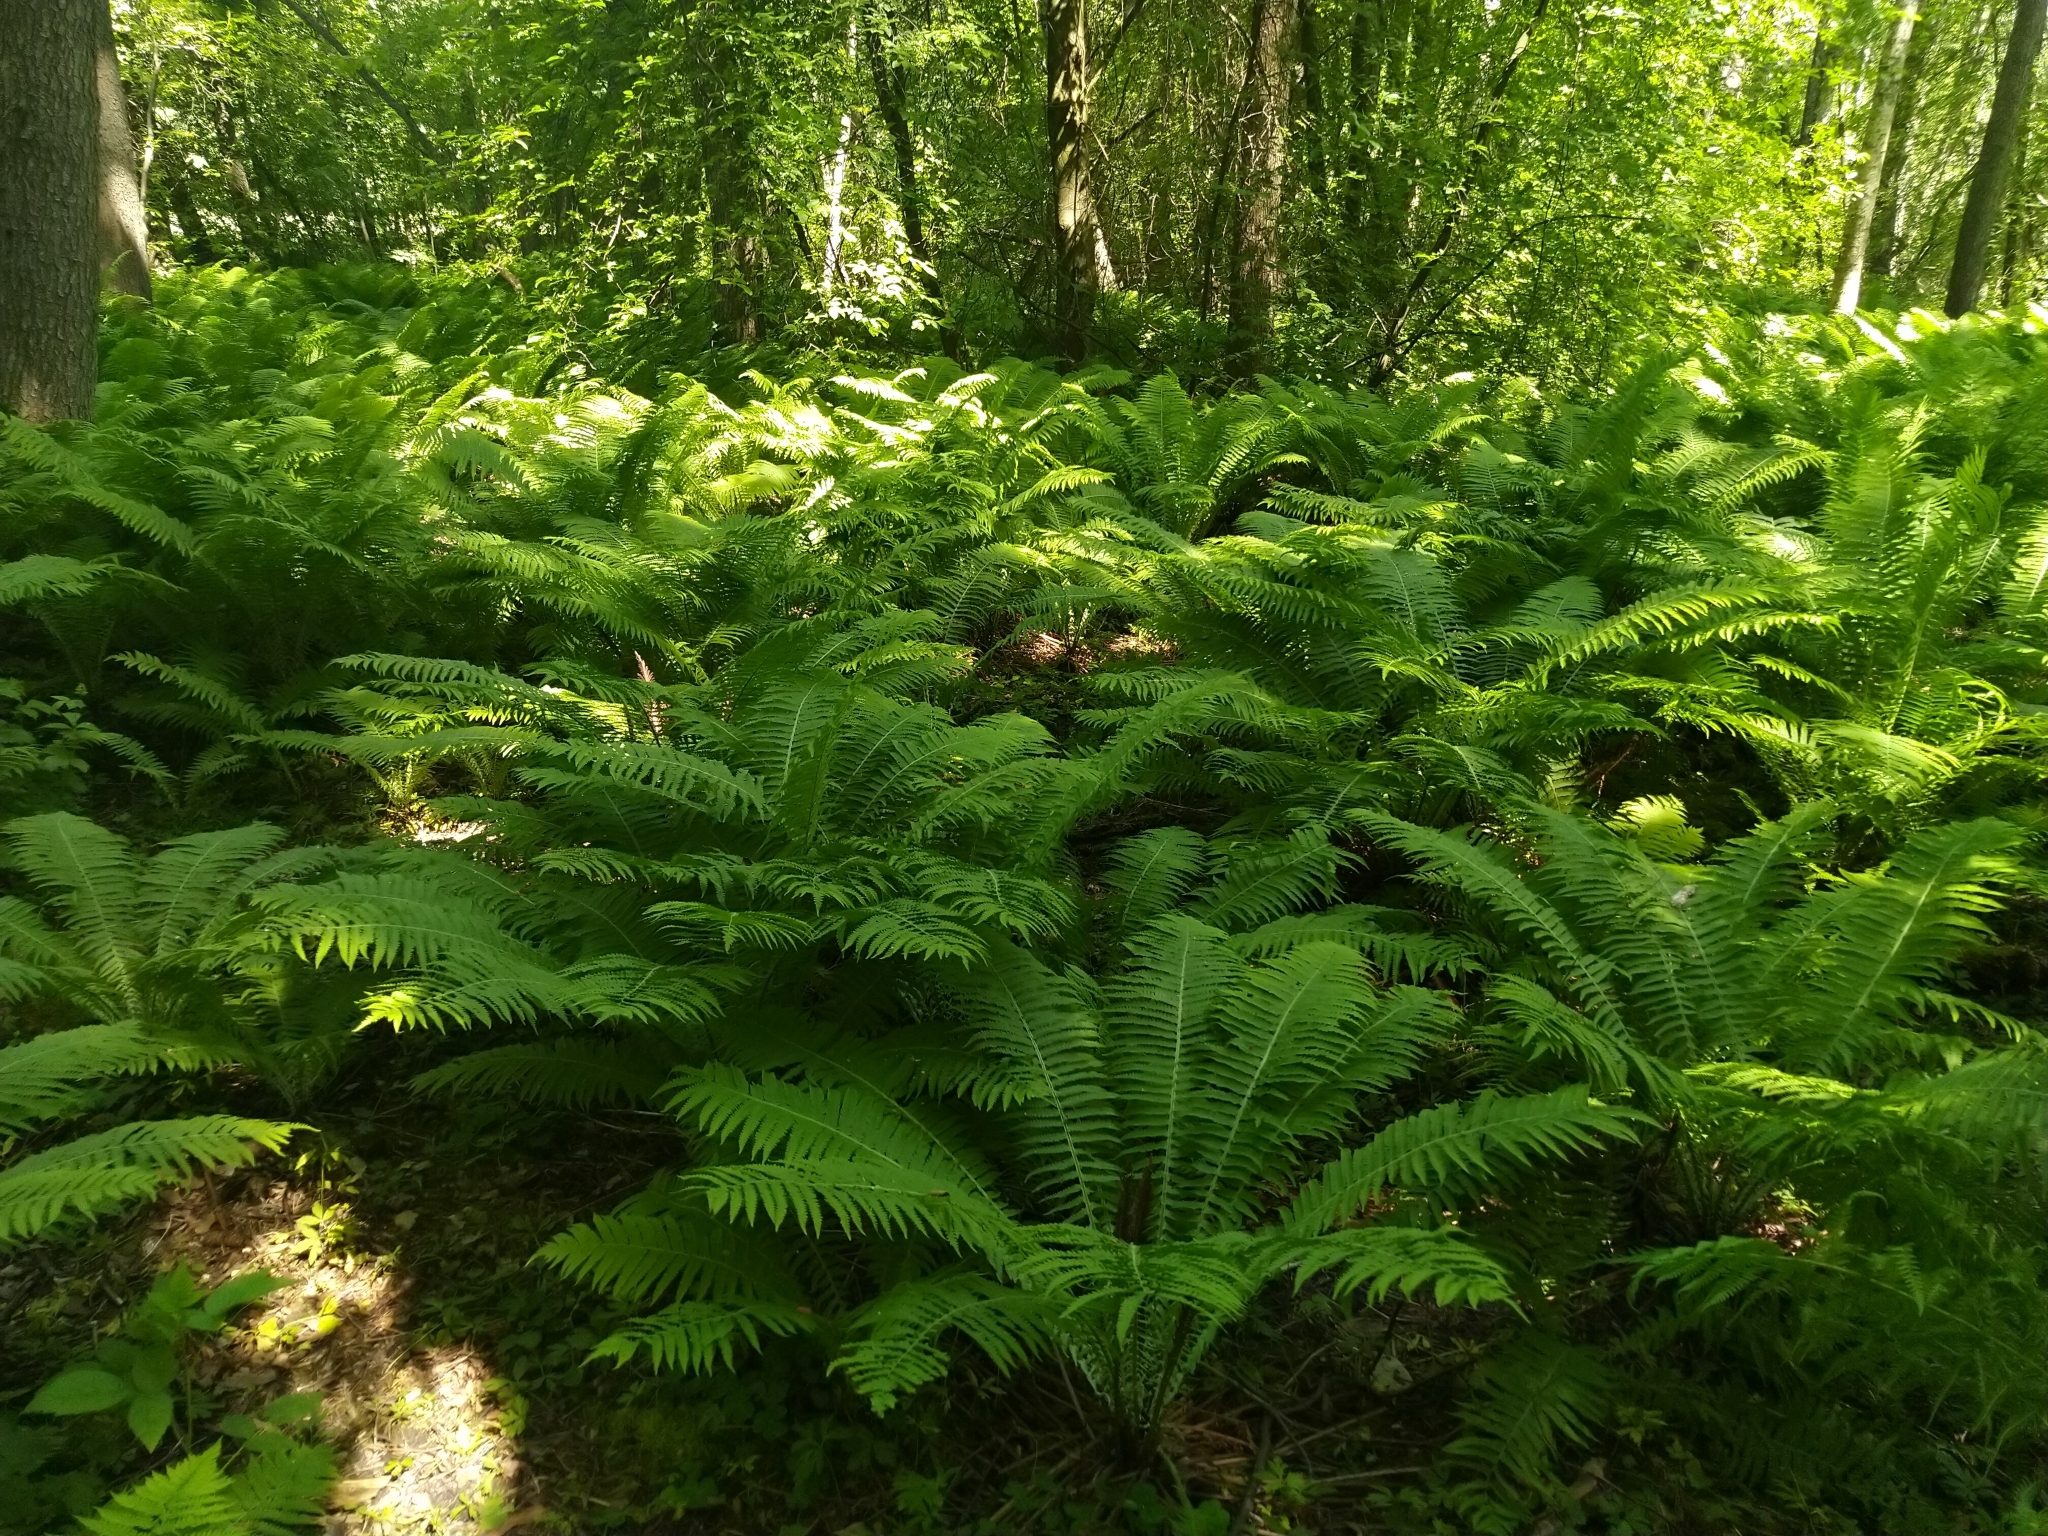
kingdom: Plantae
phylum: Tracheophyta
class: Polypodiopsida
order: Polypodiales
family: Onocleaceae
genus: Matteuccia
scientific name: Matteuccia struthiopteris
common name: Ostrich fern
